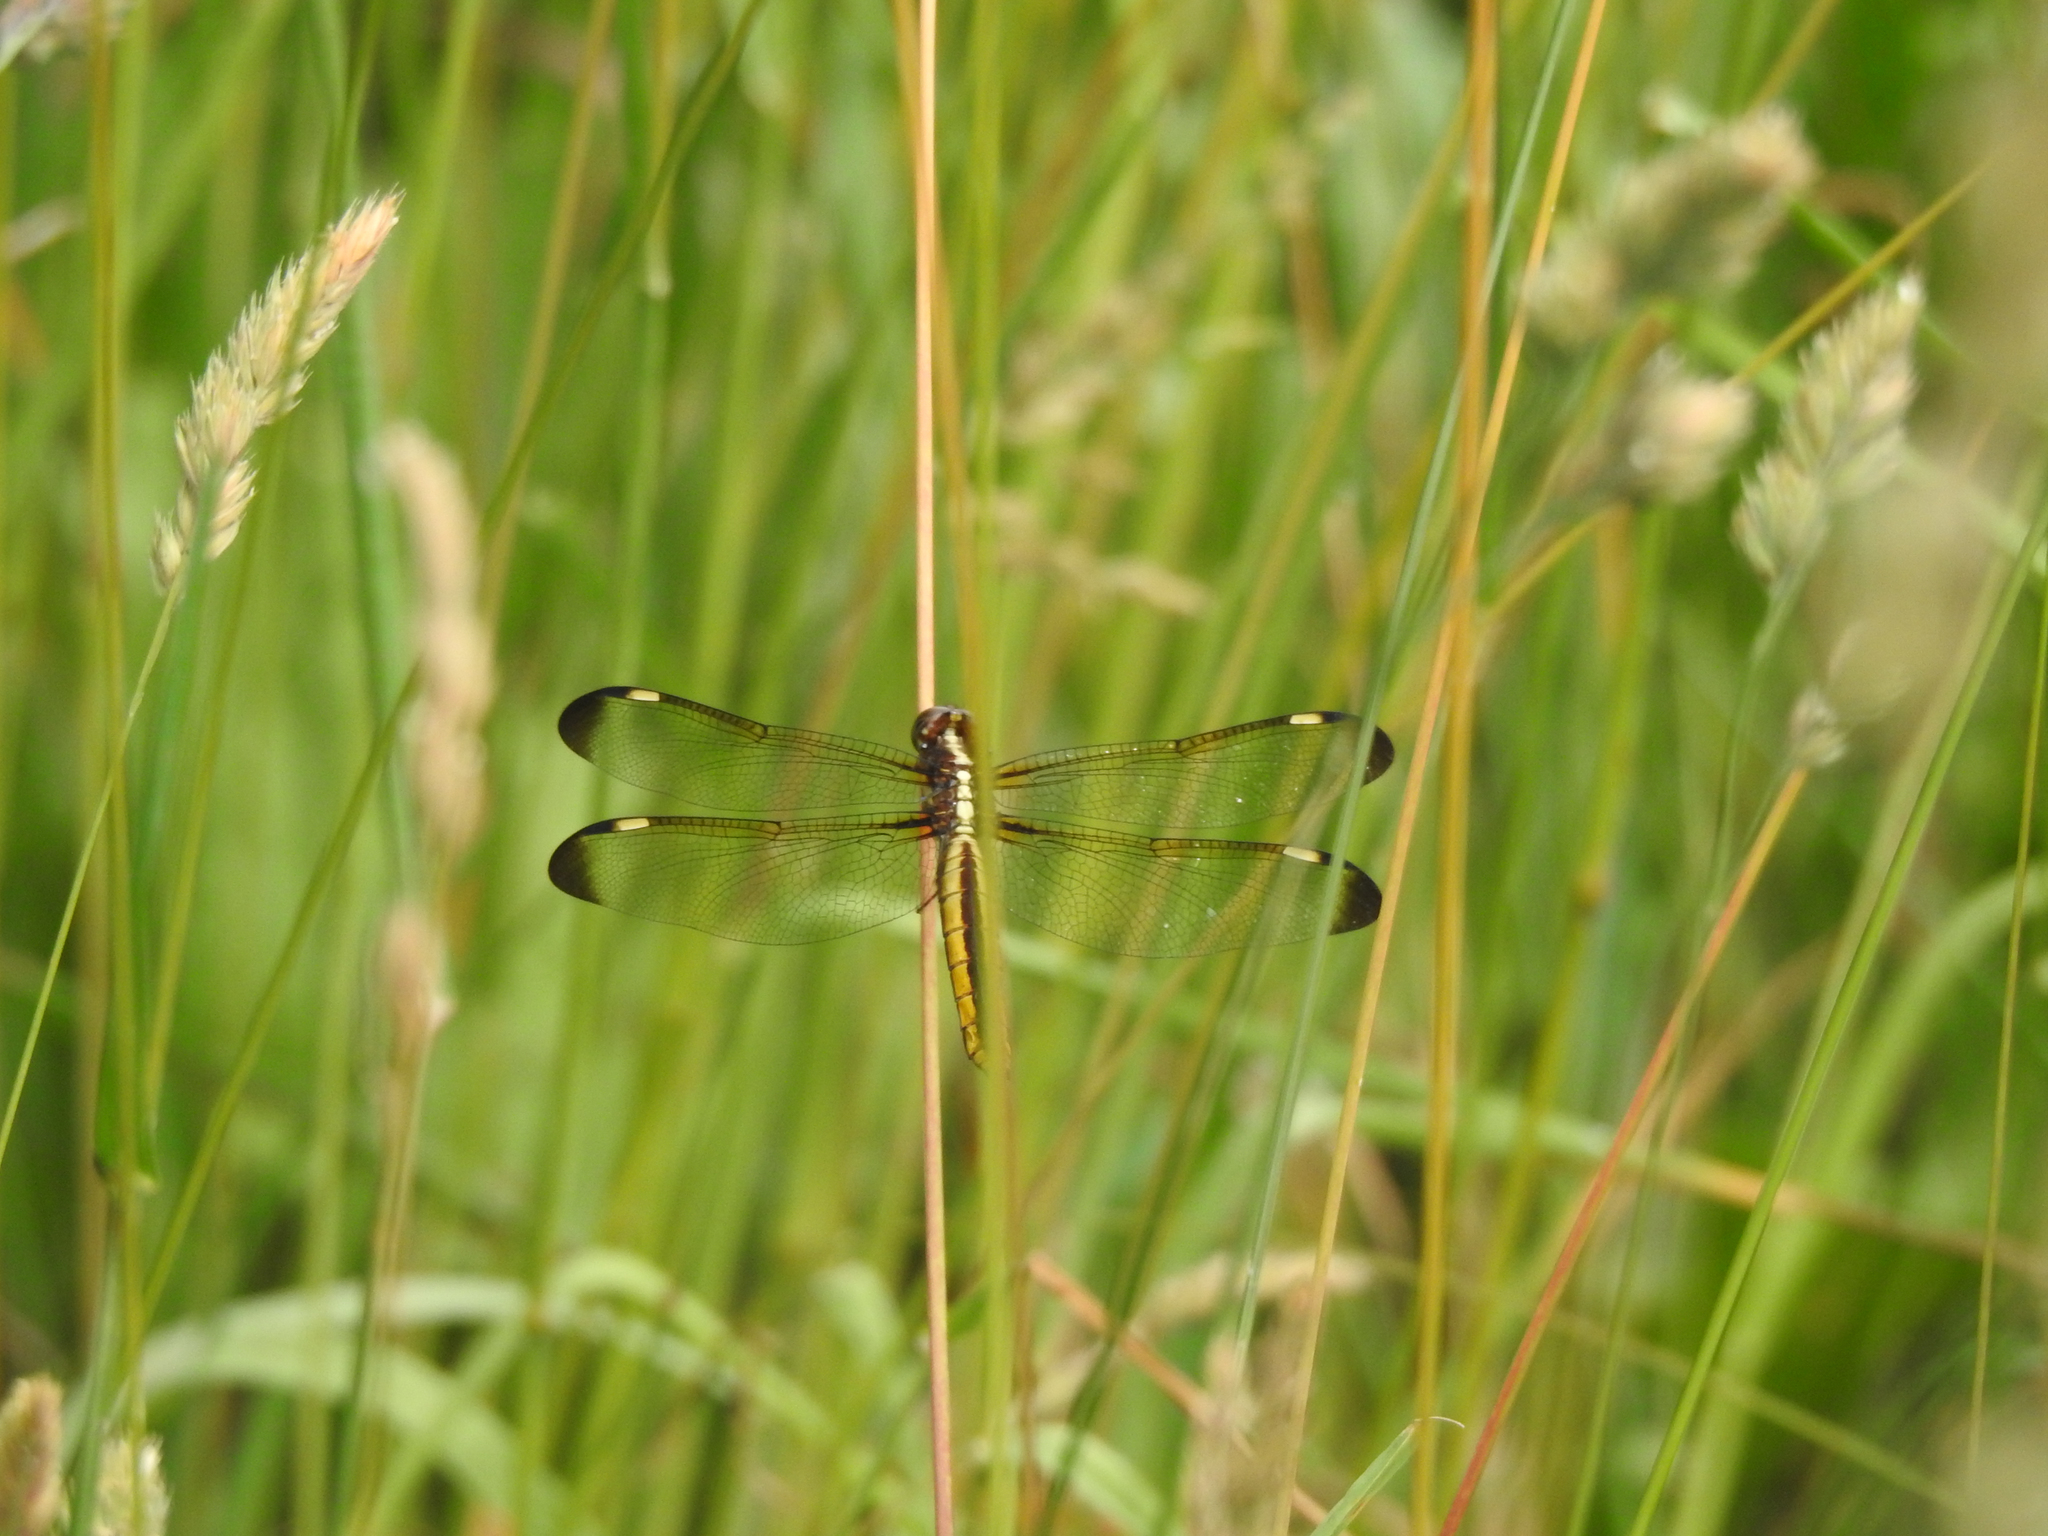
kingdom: Animalia
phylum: Arthropoda
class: Insecta
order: Odonata
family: Libellulidae
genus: Libellula
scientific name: Libellula cyanea
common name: Spangled skimmer
